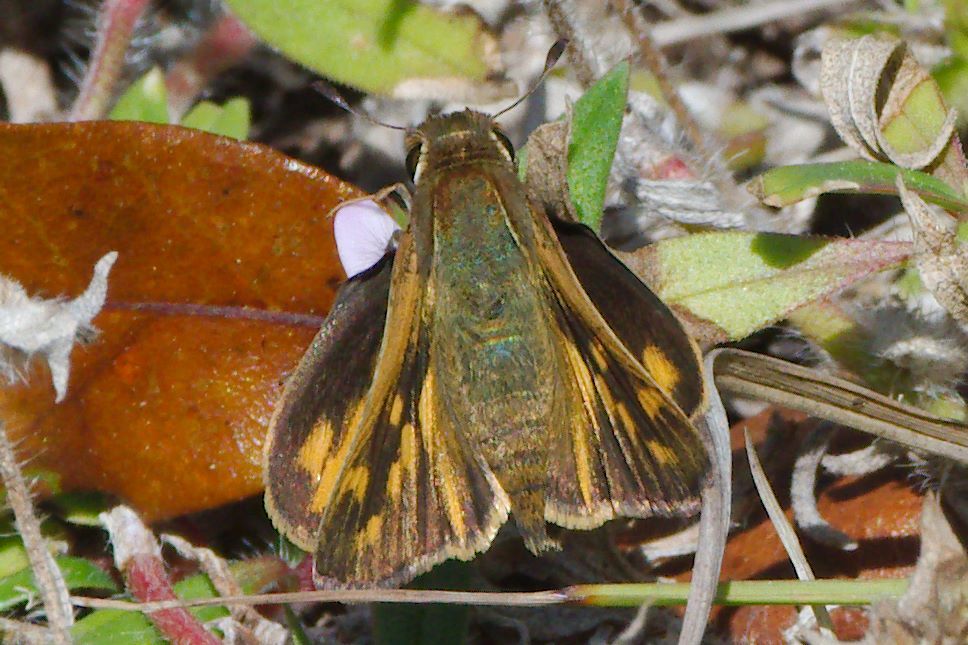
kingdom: Animalia
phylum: Arthropoda
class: Insecta
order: Lepidoptera
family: Hesperiidae
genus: Hylephila
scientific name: Hylephila phyleus
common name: Fiery skipper
